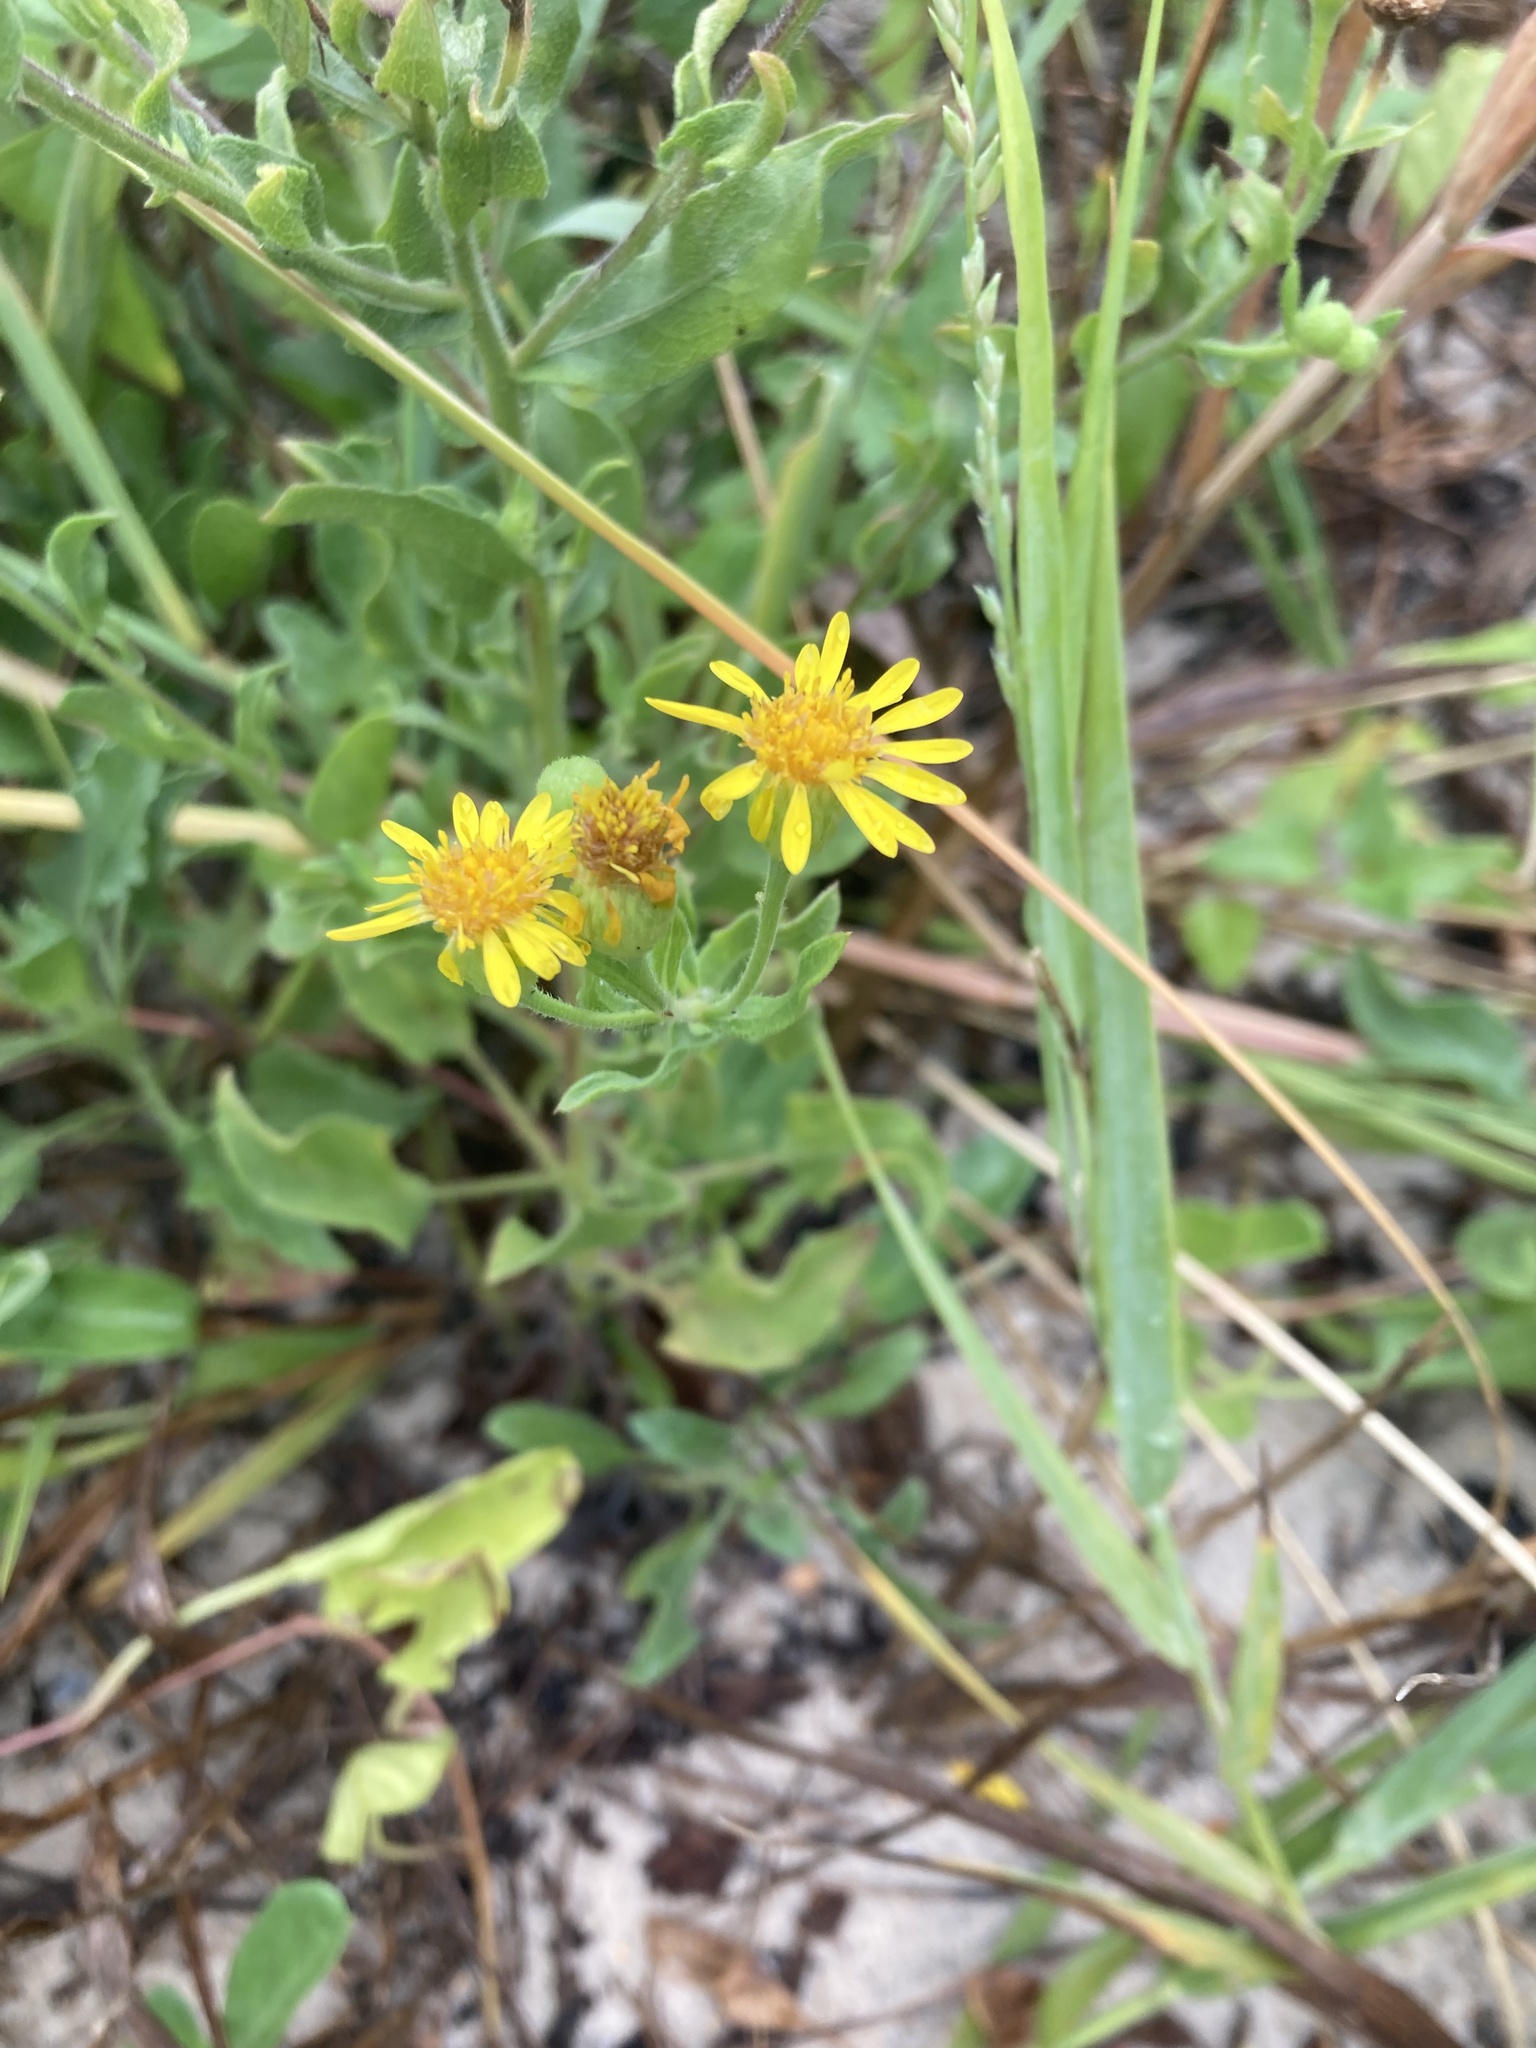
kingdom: Plantae
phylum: Tracheophyta
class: Magnoliopsida
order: Asterales
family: Asteraceae
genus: Heterotheca
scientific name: Heterotheca subaxillaris
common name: Camphorweed
